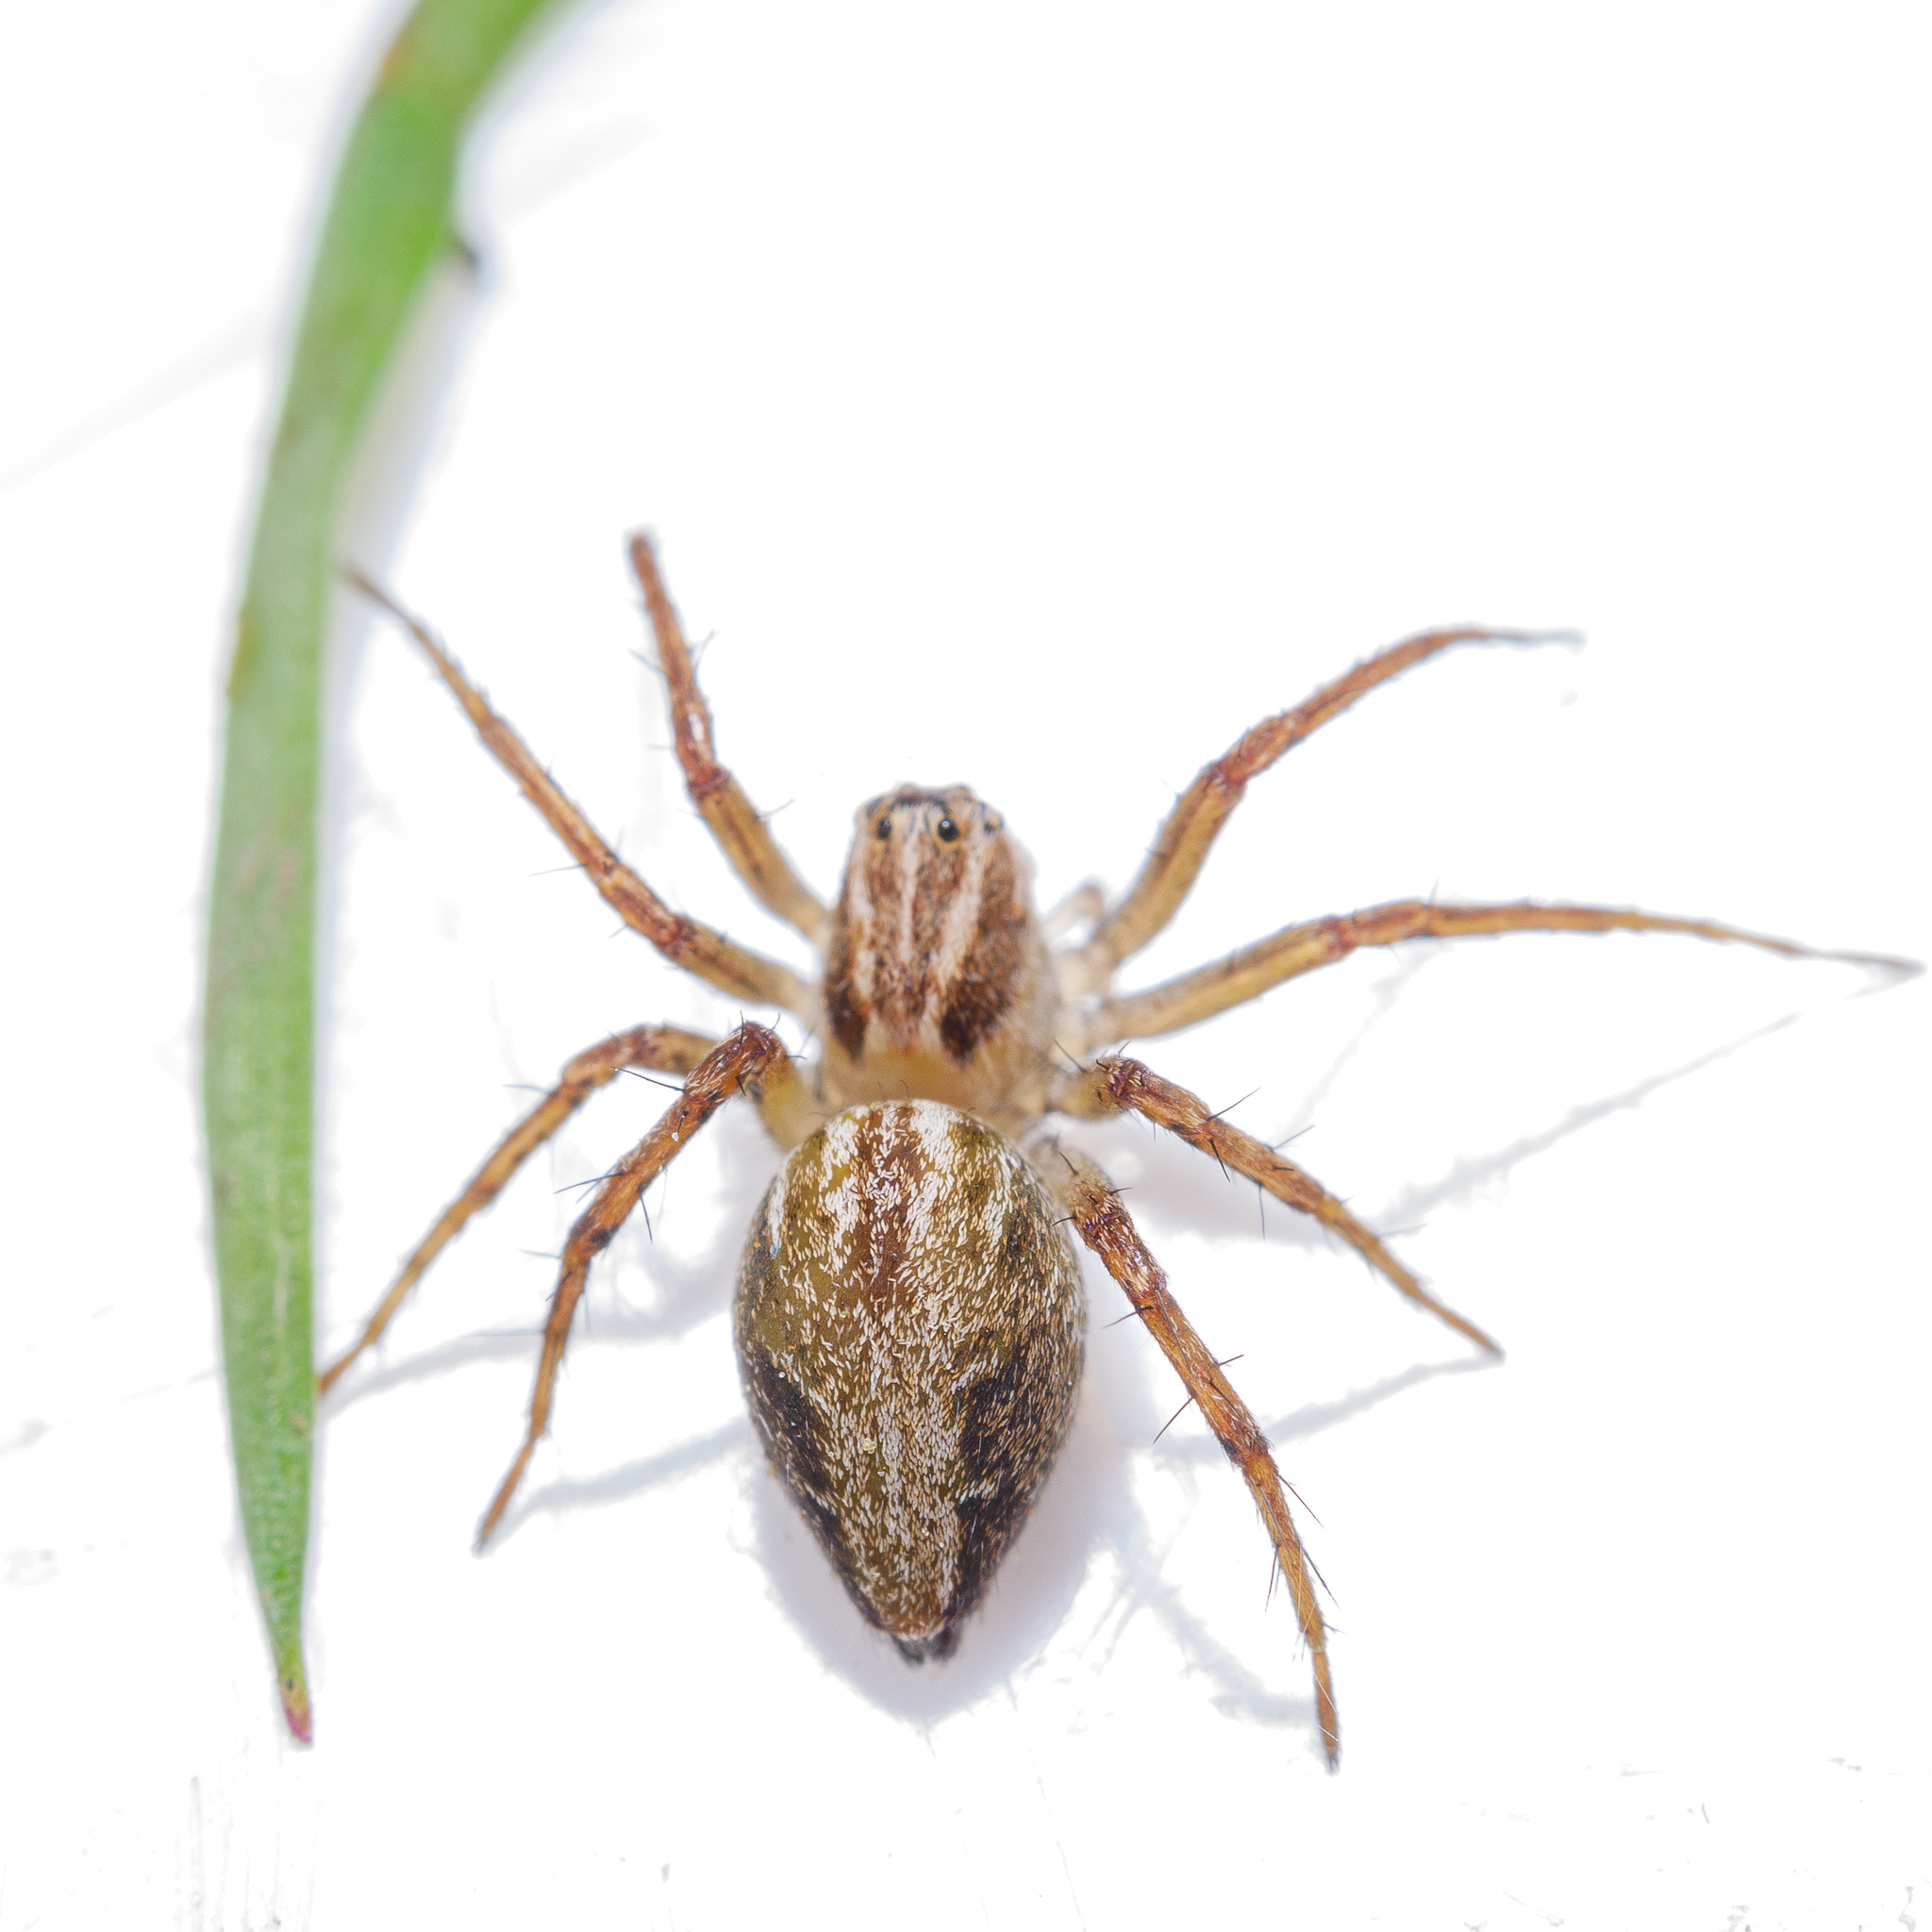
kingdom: Animalia
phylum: Arthropoda
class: Arachnida
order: Araneae
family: Oxyopidae
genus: Oxyopes
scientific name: Oxyopes gracilipes
